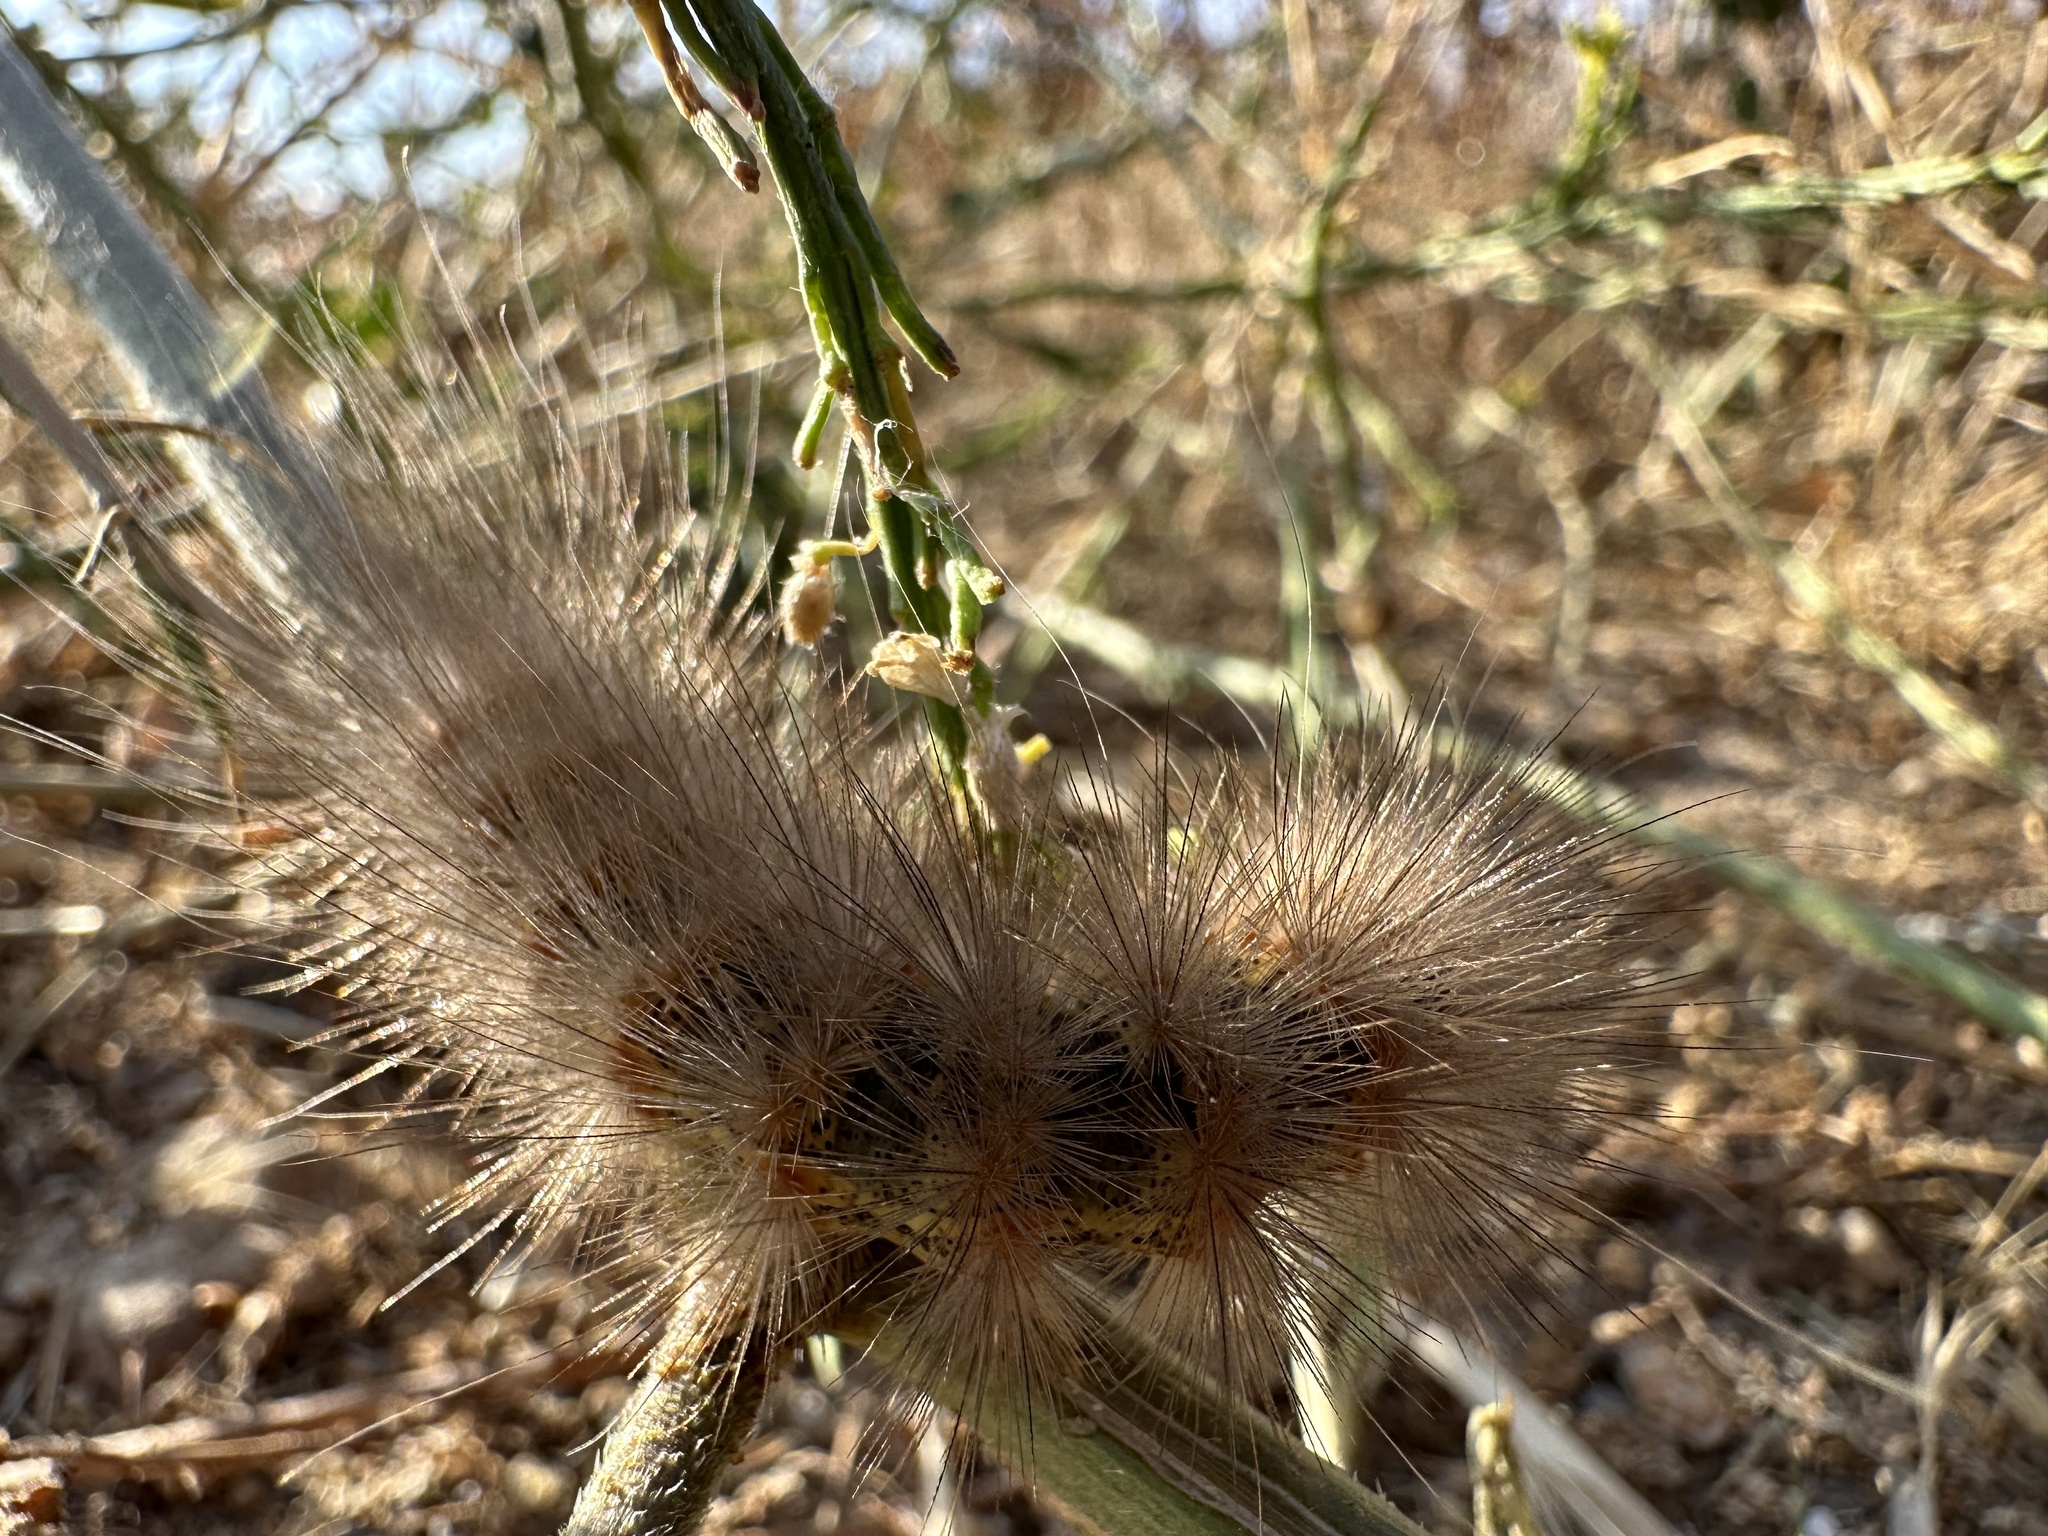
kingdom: Animalia
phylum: Arthropoda
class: Insecta
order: Lepidoptera
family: Erebidae
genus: Estigmene
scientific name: Estigmene acrea
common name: Salt marsh moth
